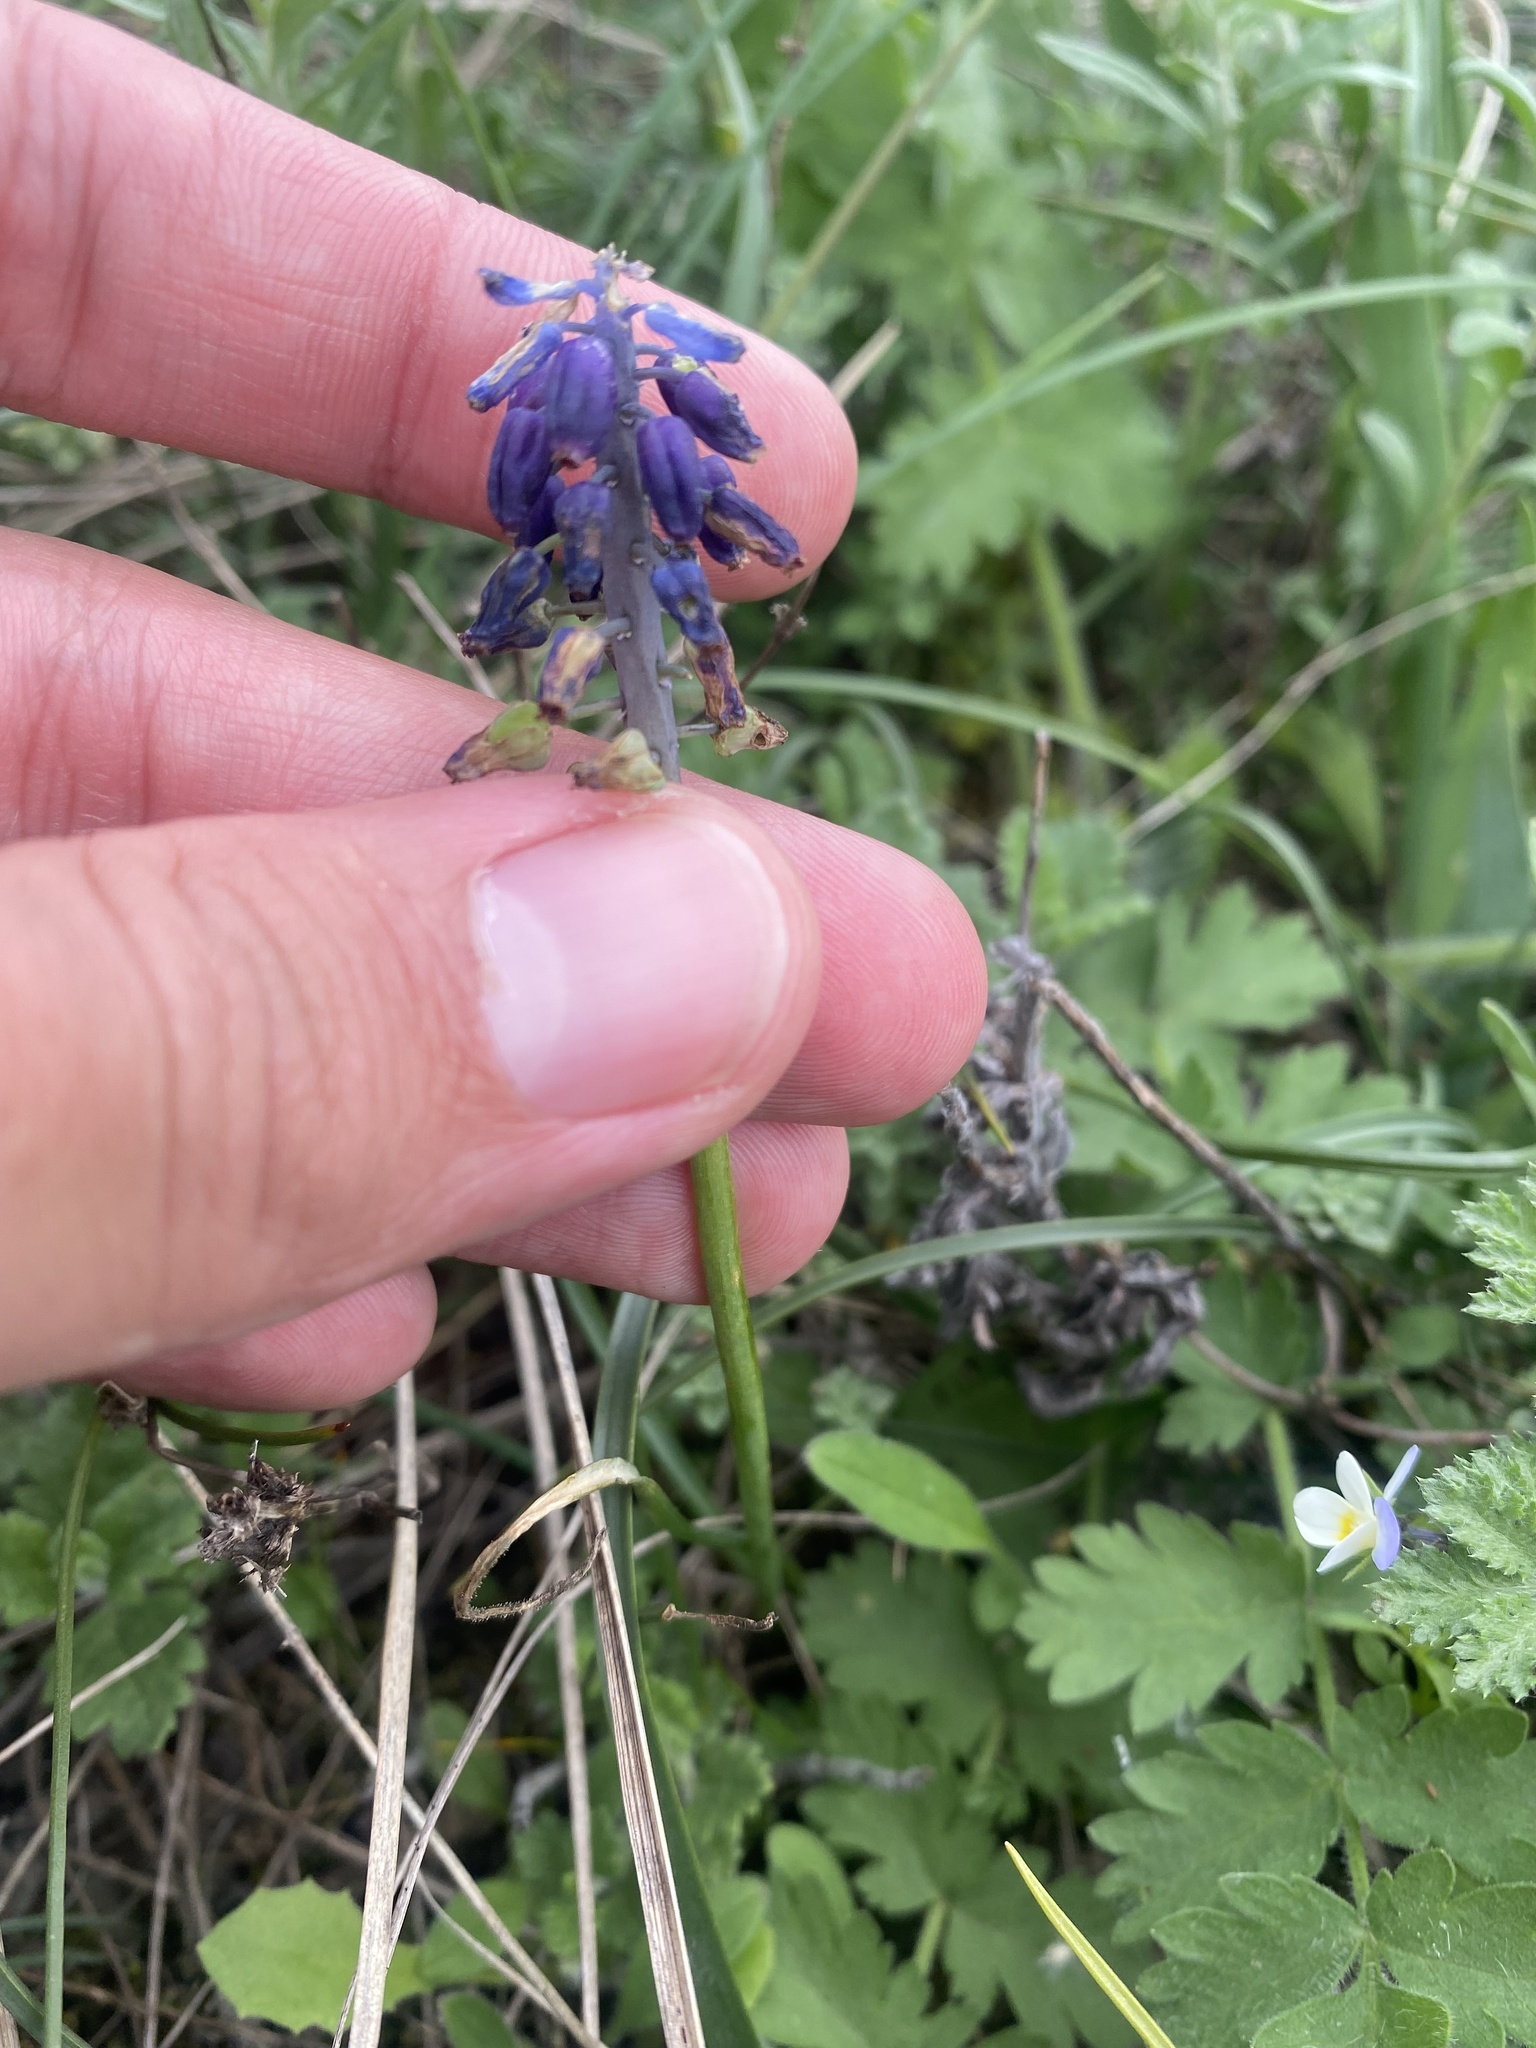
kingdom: Plantae
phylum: Tracheophyta
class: Liliopsida
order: Asparagales
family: Asparagaceae
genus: Muscari
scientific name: Muscari neglectum
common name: Grape-hyacinth
